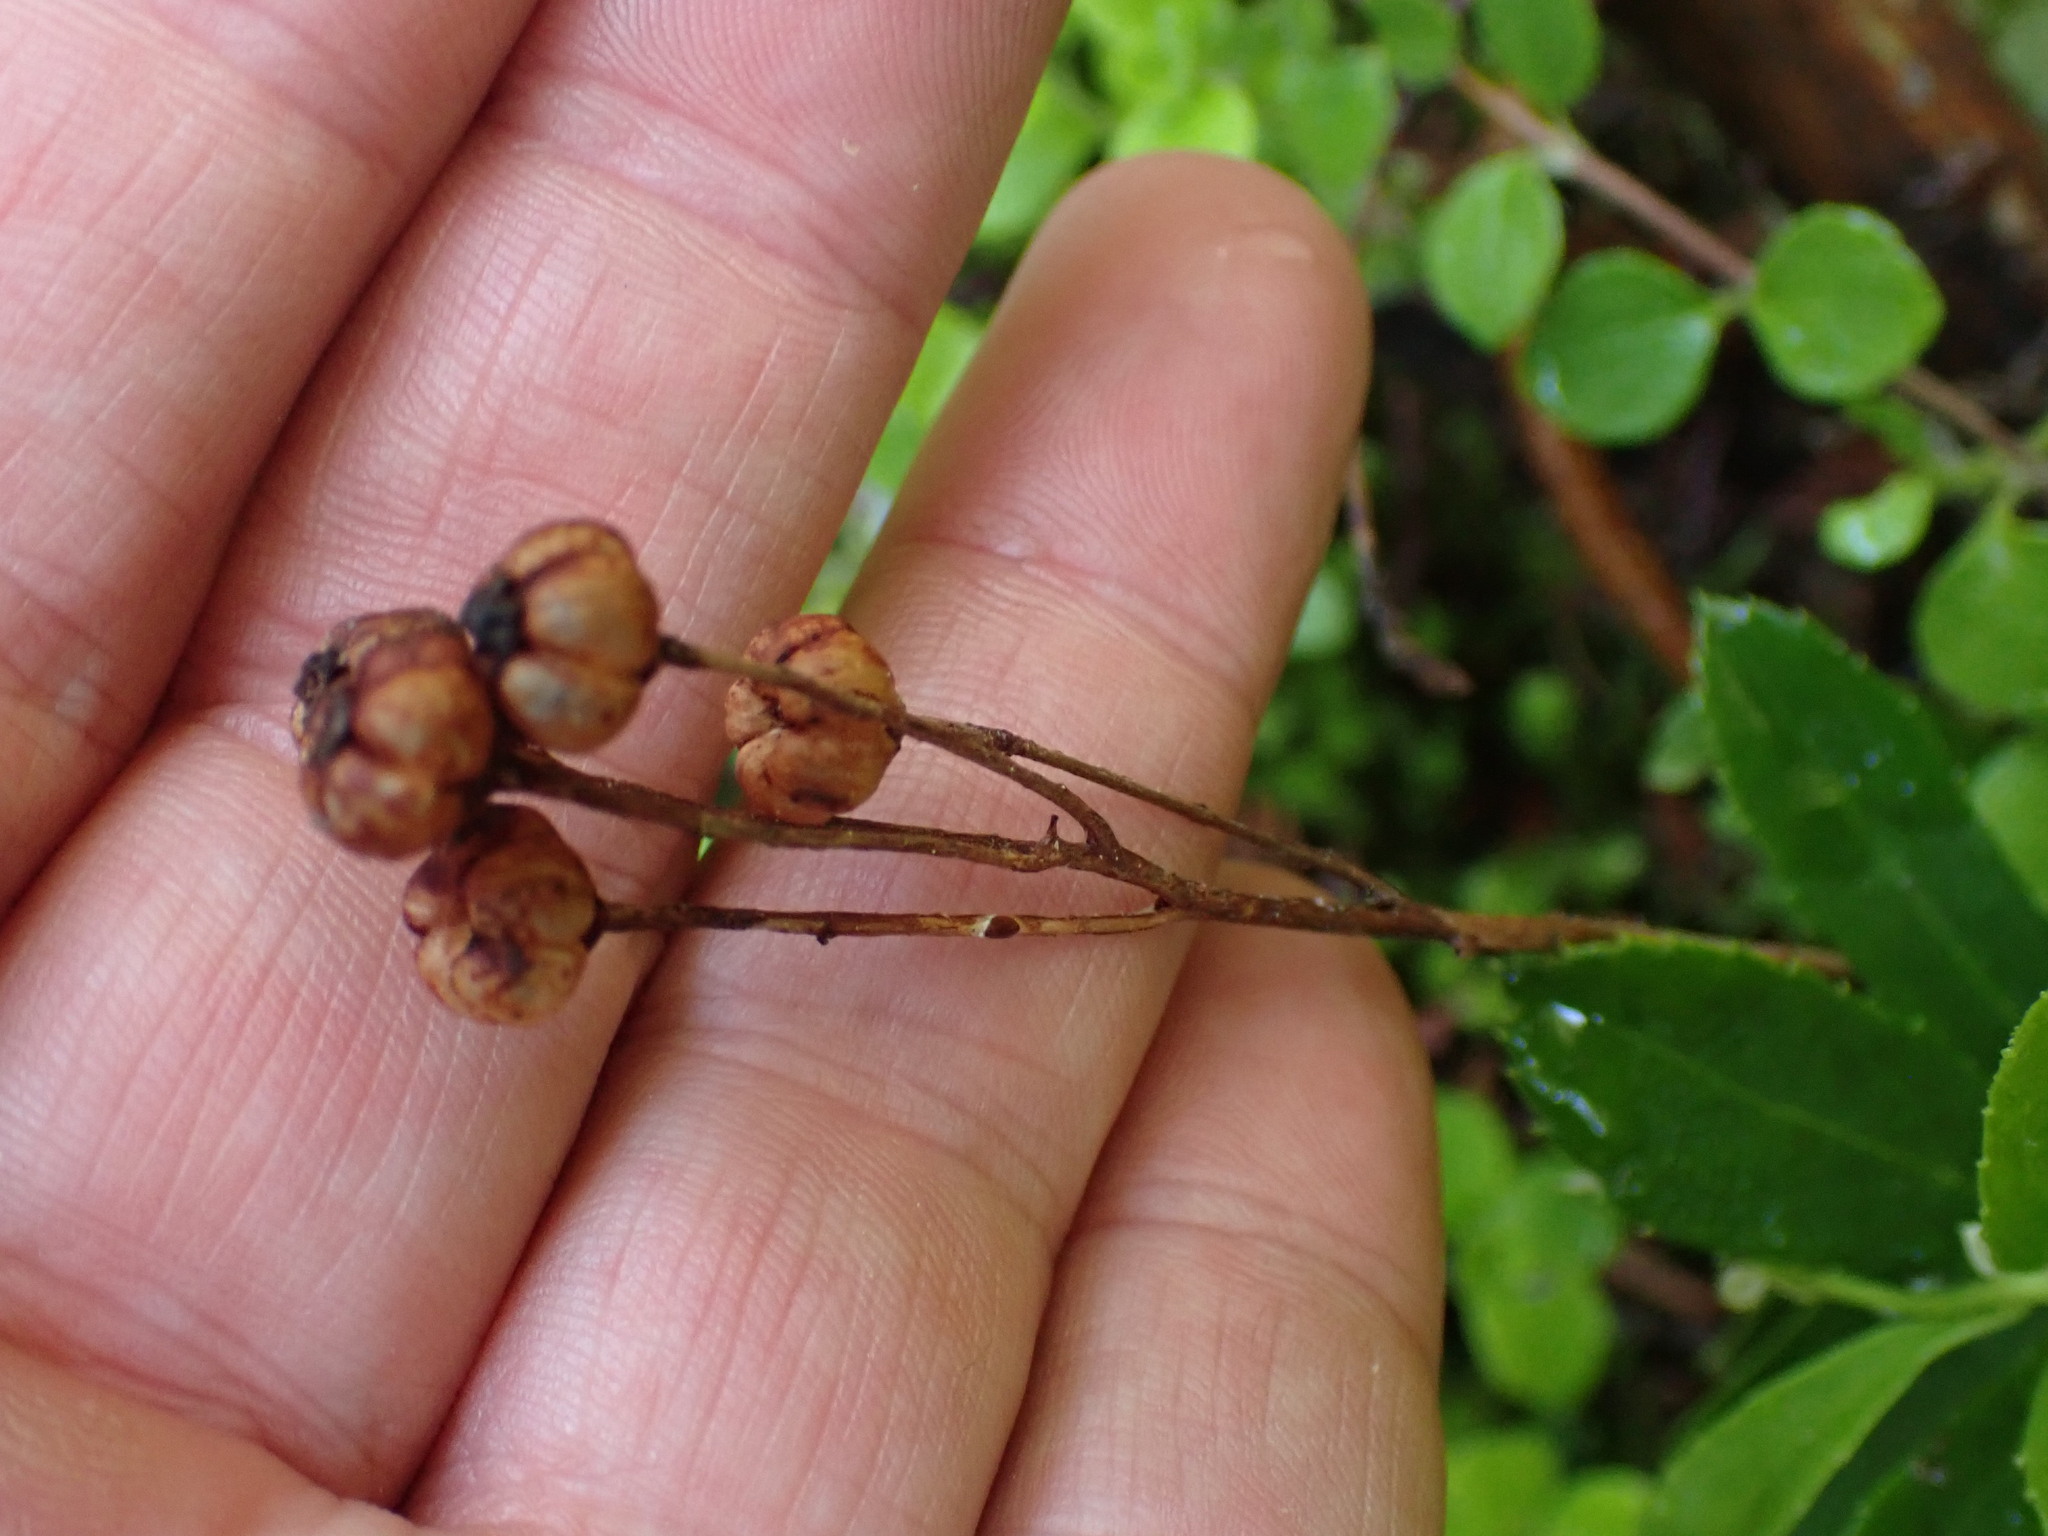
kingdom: Plantae
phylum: Tracheophyta
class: Magnoliopsida
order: Ericales
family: Ericaceae
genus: Chimaphila
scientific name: Chimaphila umbellata
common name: Pipsissewa
